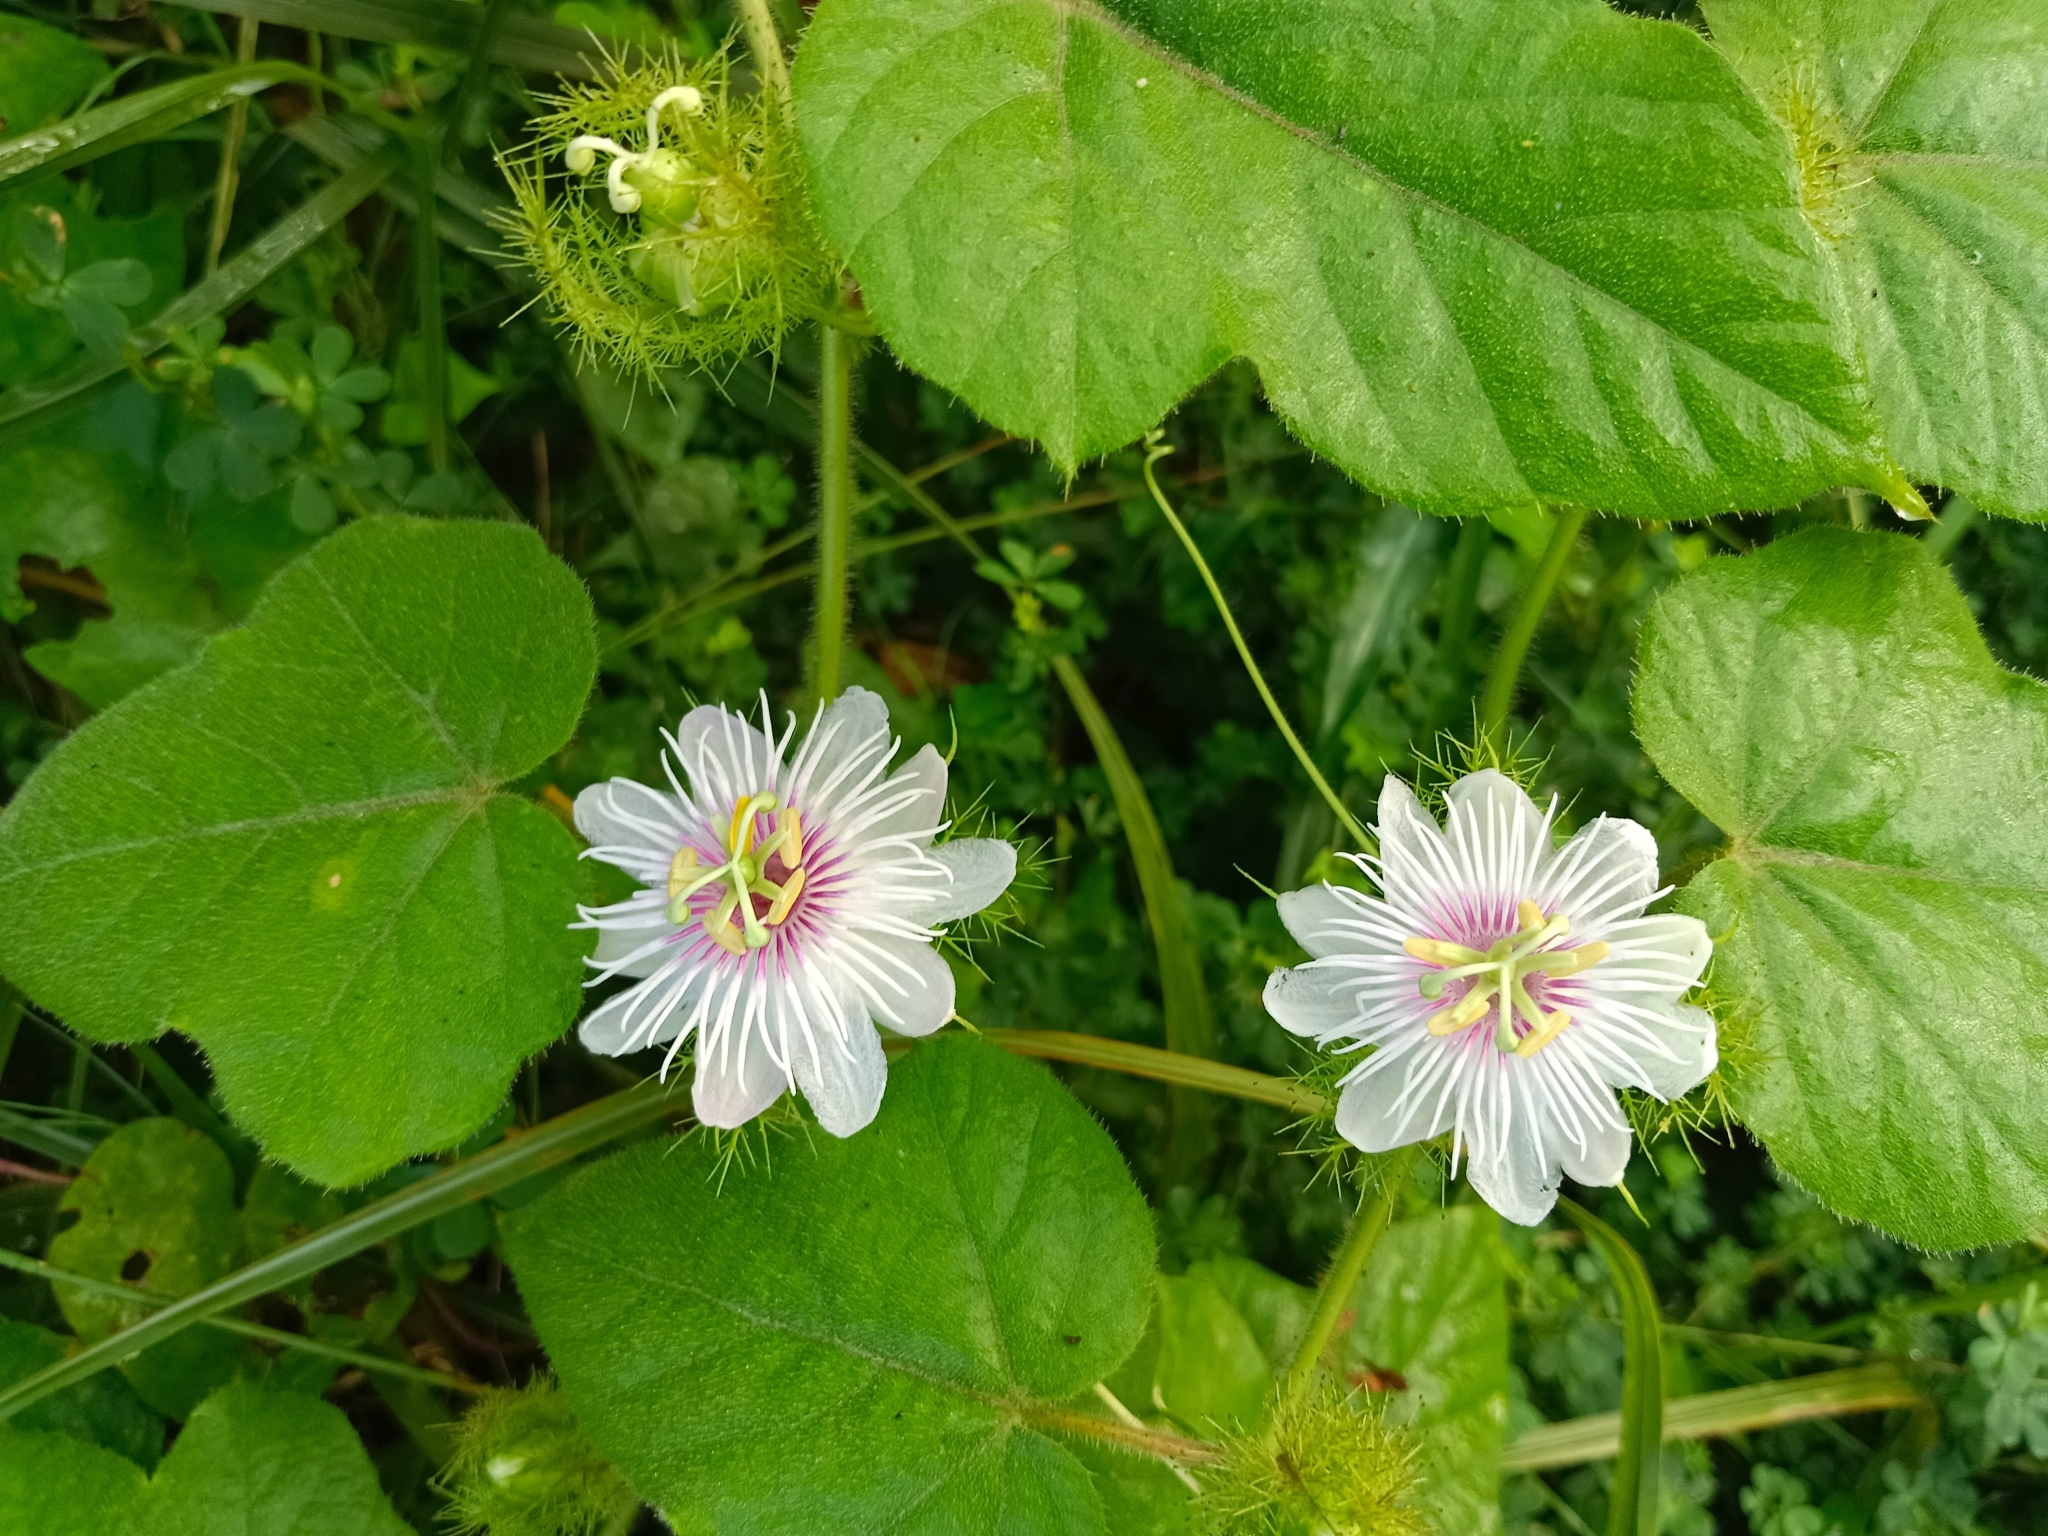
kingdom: Plantae
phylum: Tracheophyta
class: Magnoliopsida
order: Malpighiales
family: Passifloraceae
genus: Passiflora
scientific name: Passiflora vesicaria
